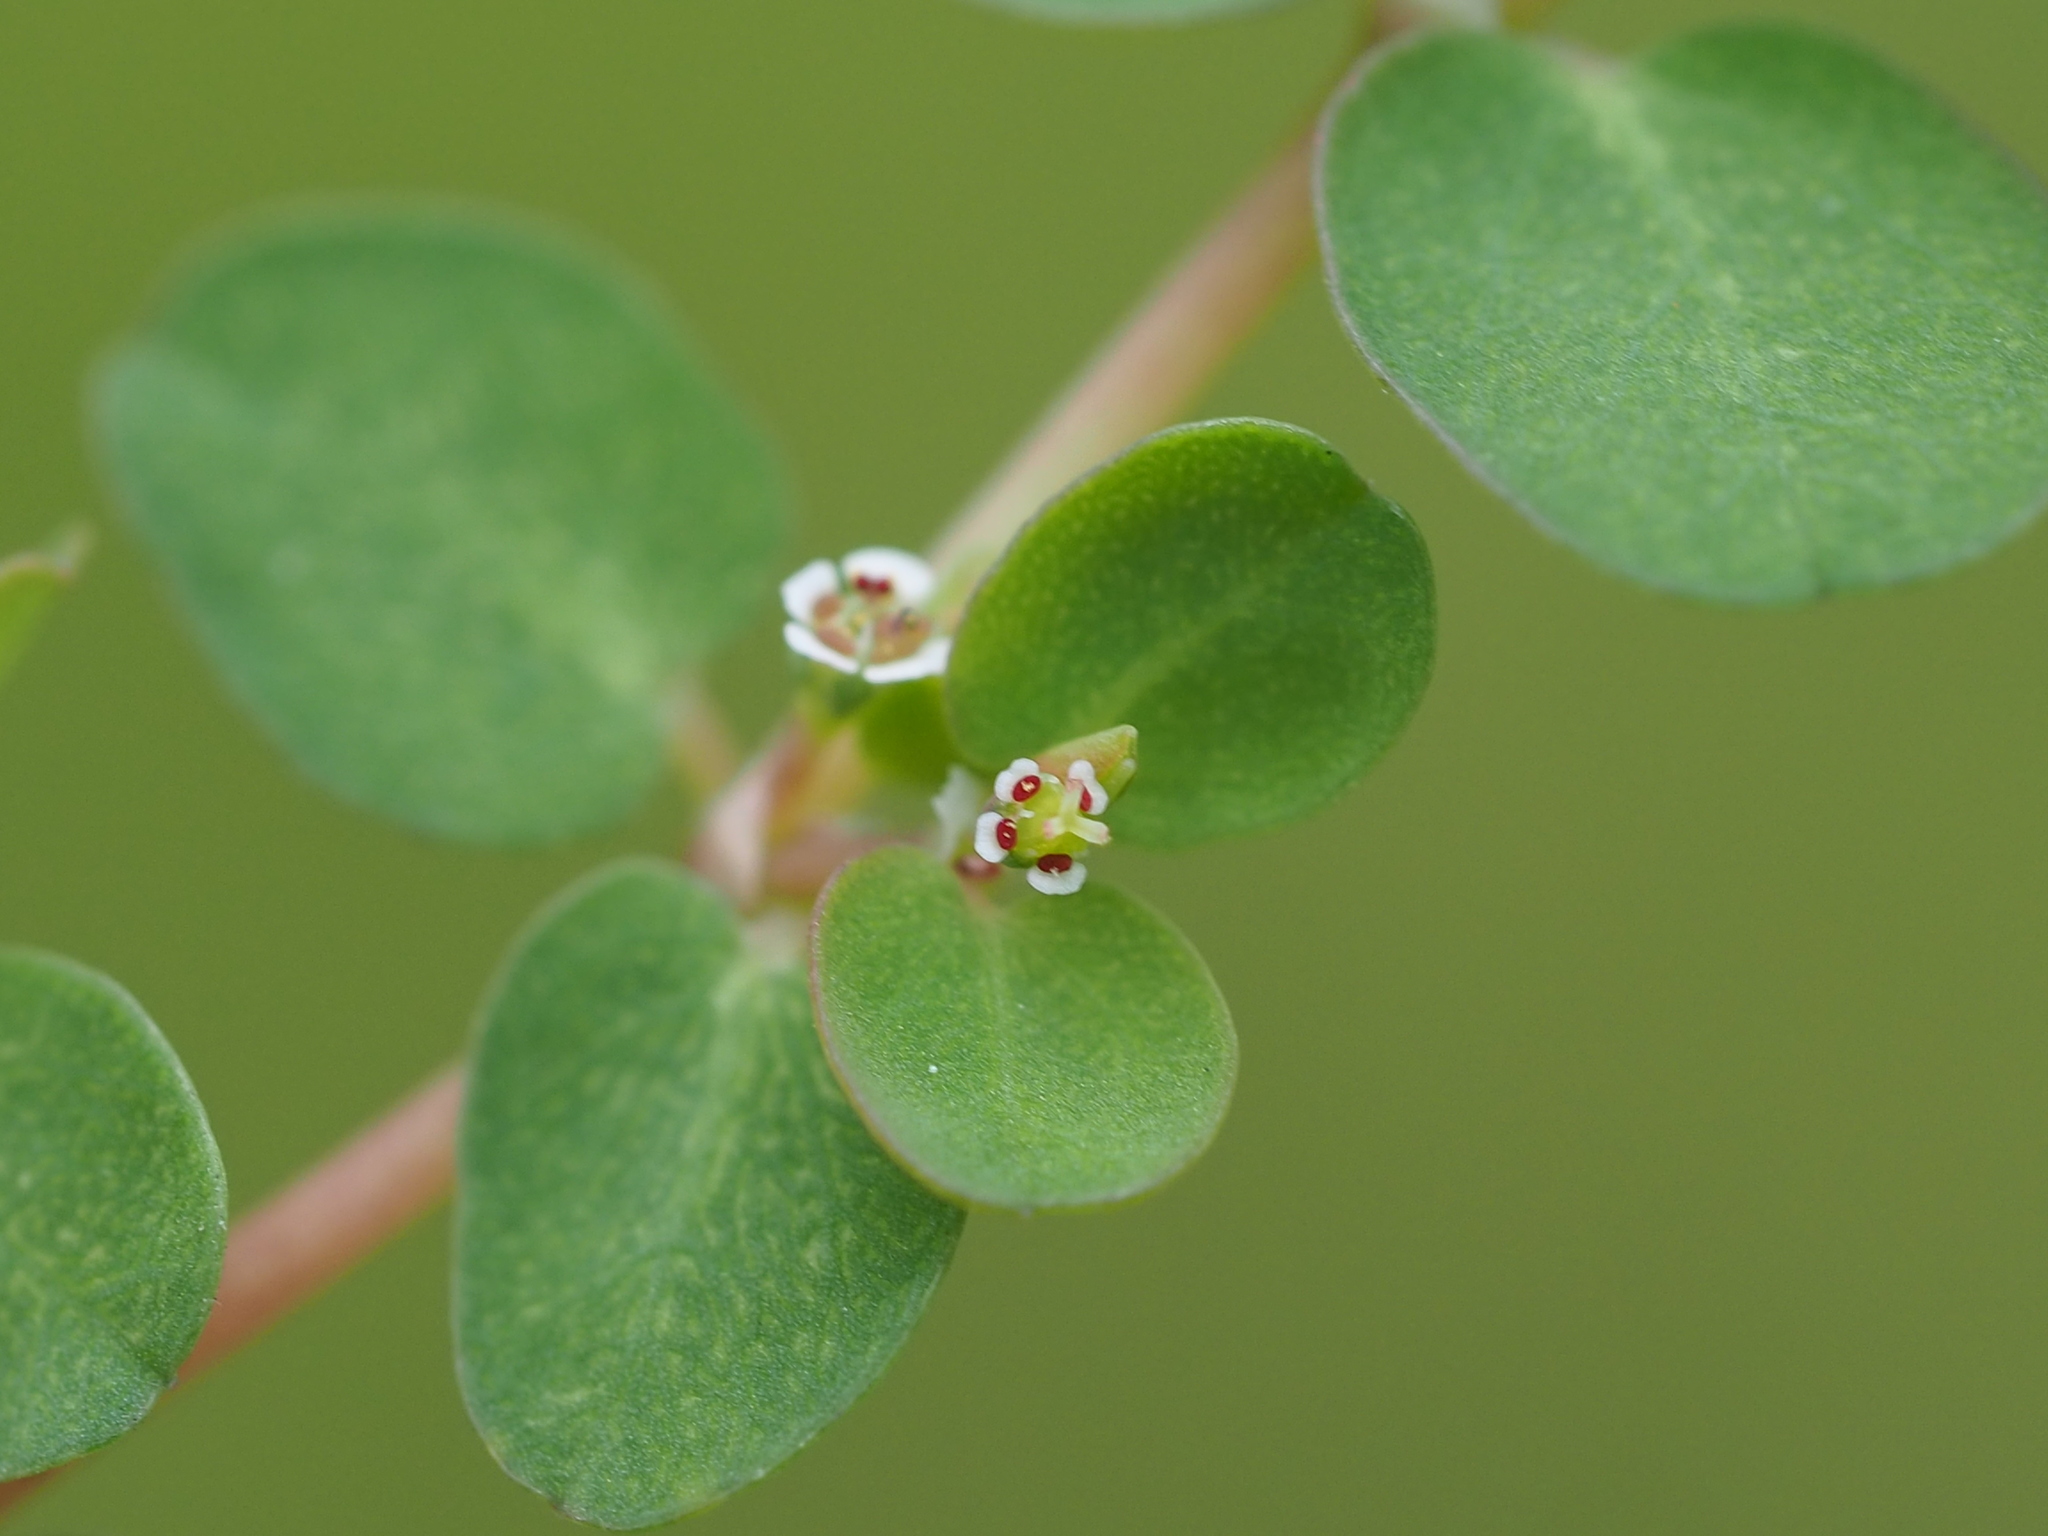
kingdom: Plantae
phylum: Tracheophyta
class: Magnoliopsida
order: Malpighiales
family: Euphorbiaceae
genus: Euphorbia
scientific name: Euphorbia serpens
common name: Matted sandmat
